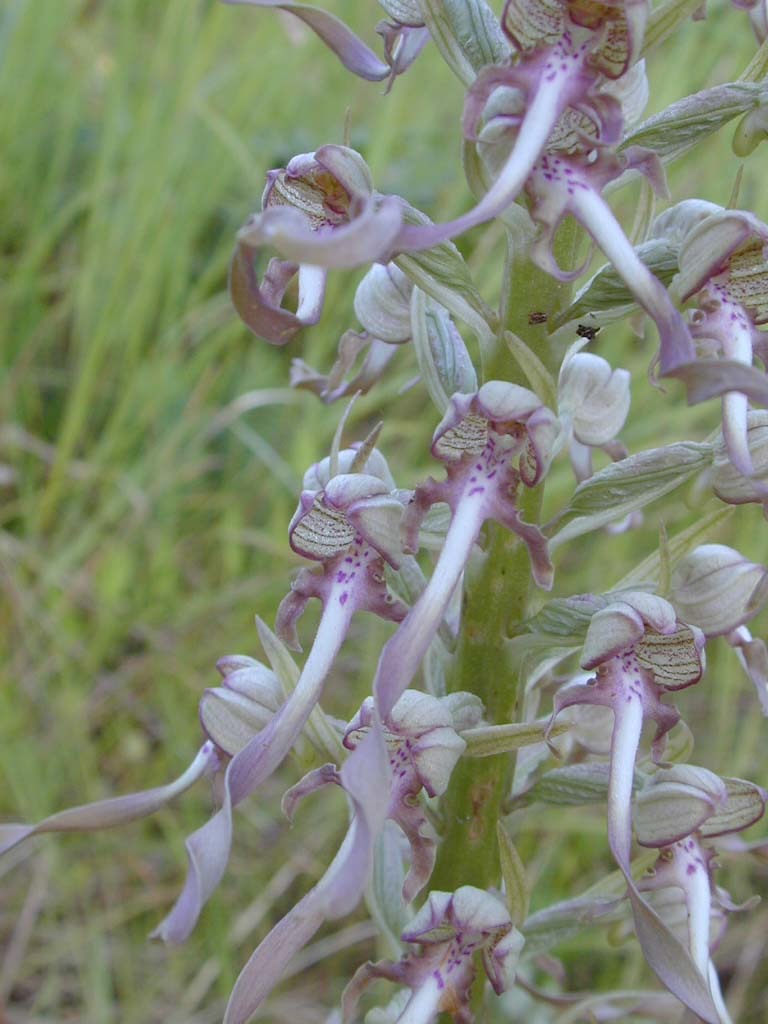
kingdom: Plantae
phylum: Tracheophyta
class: Liliopsida
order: Asparagales
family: Orchidaceae
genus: Himantoglossum
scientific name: Himantoglossum hircinum
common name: Lizard orchid
